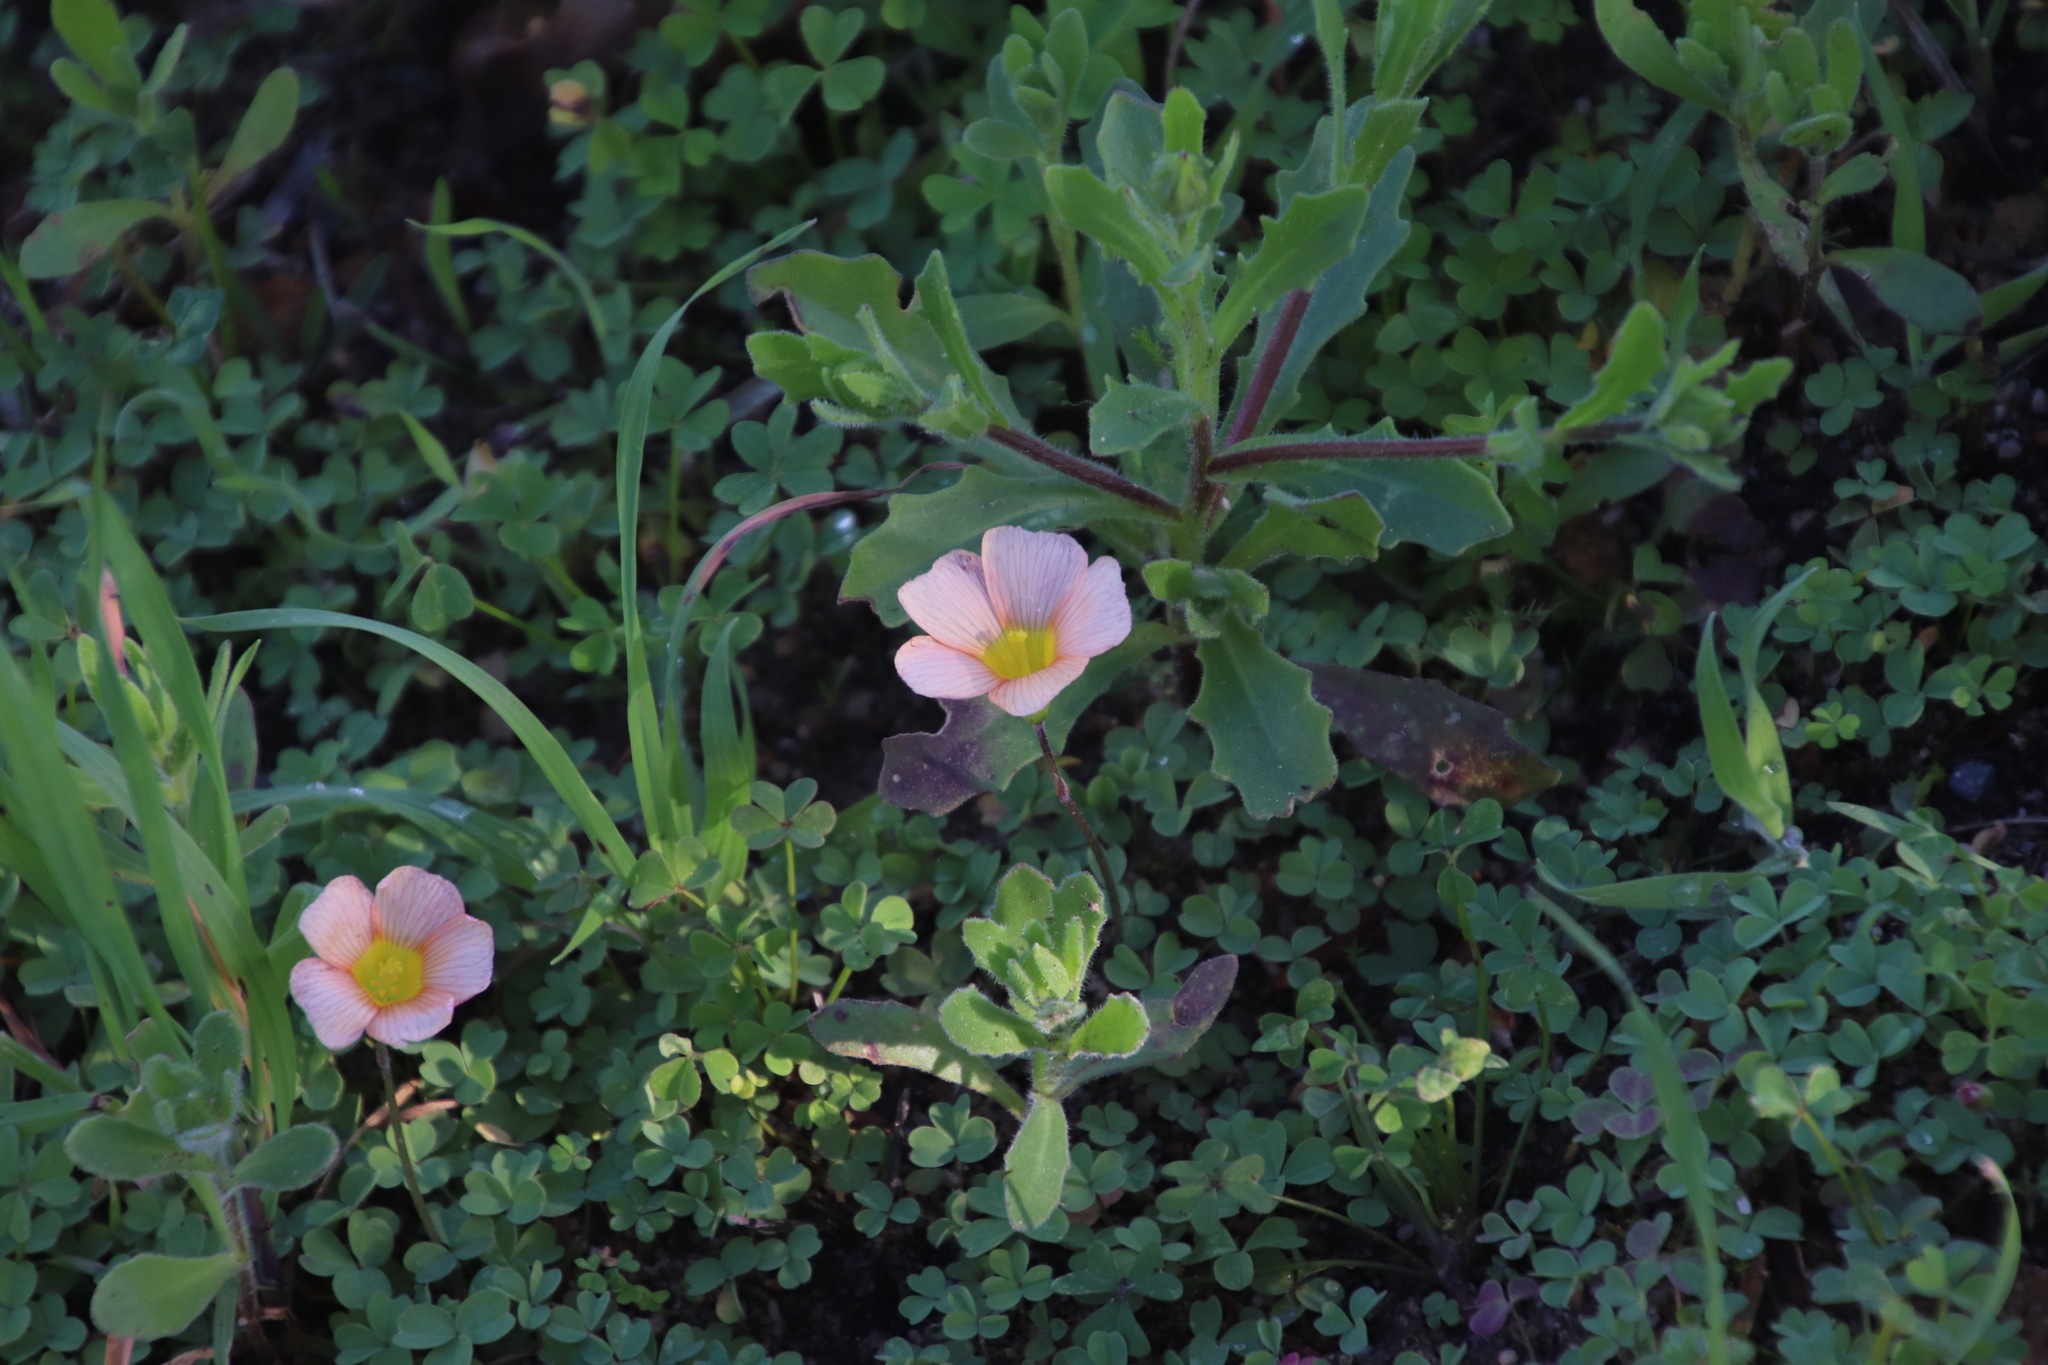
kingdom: Plantae
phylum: Tracheophyta
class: Magnoliopsida
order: Oxalidales
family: Oxalidaceae
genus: Oxalis
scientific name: Oxalis obtusa
